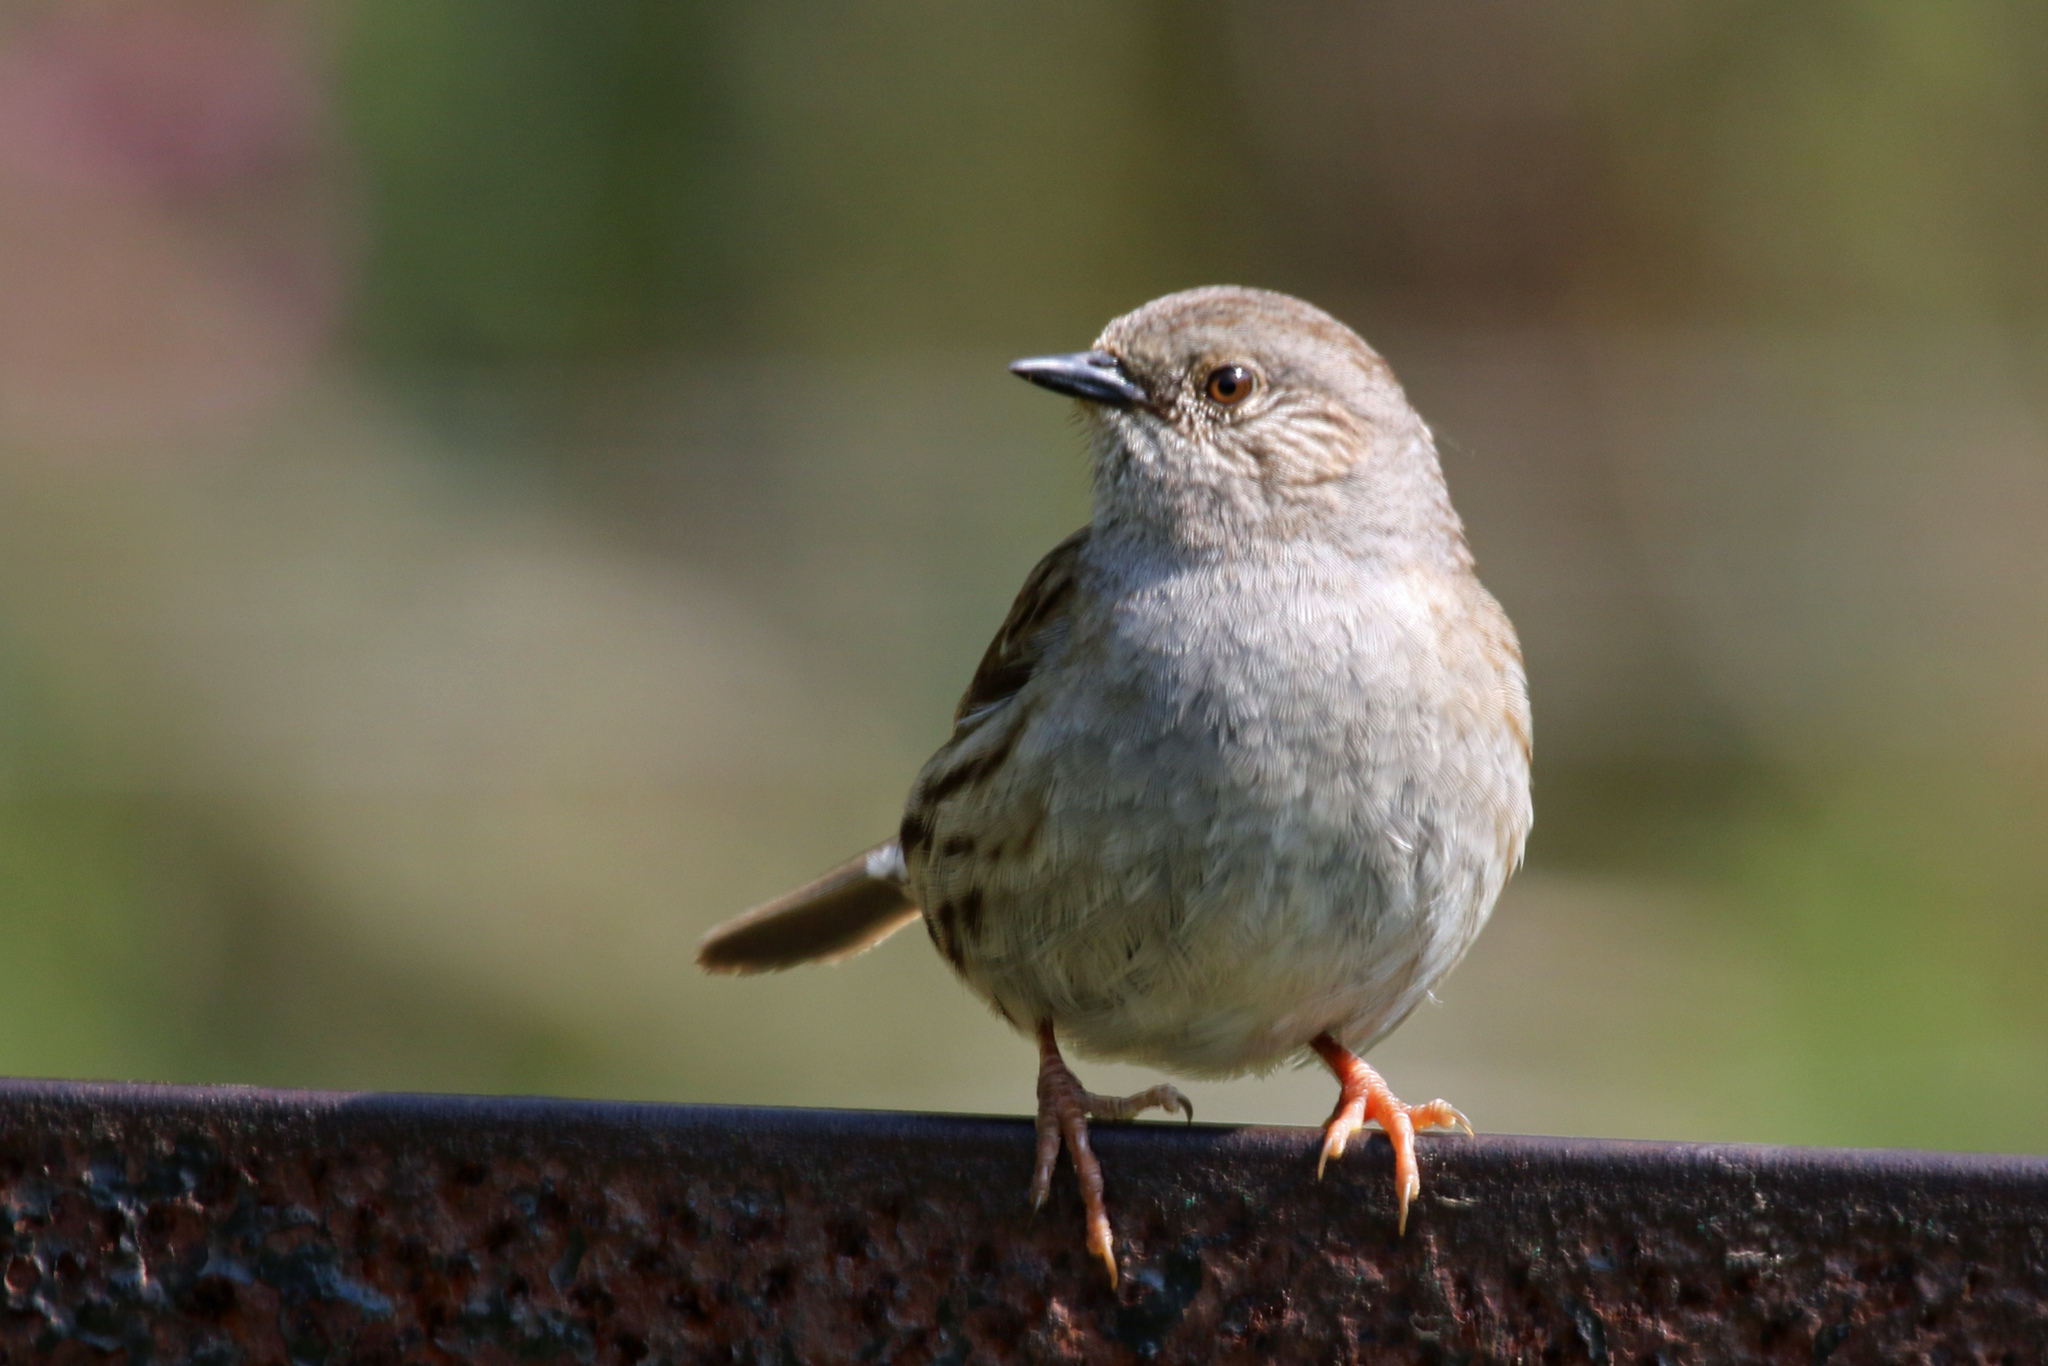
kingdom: Animalia
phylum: Chordata
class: Aves
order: Passeriformes
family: Prunellidae
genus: Prunella
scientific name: Prunella modularis
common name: Dunnock
